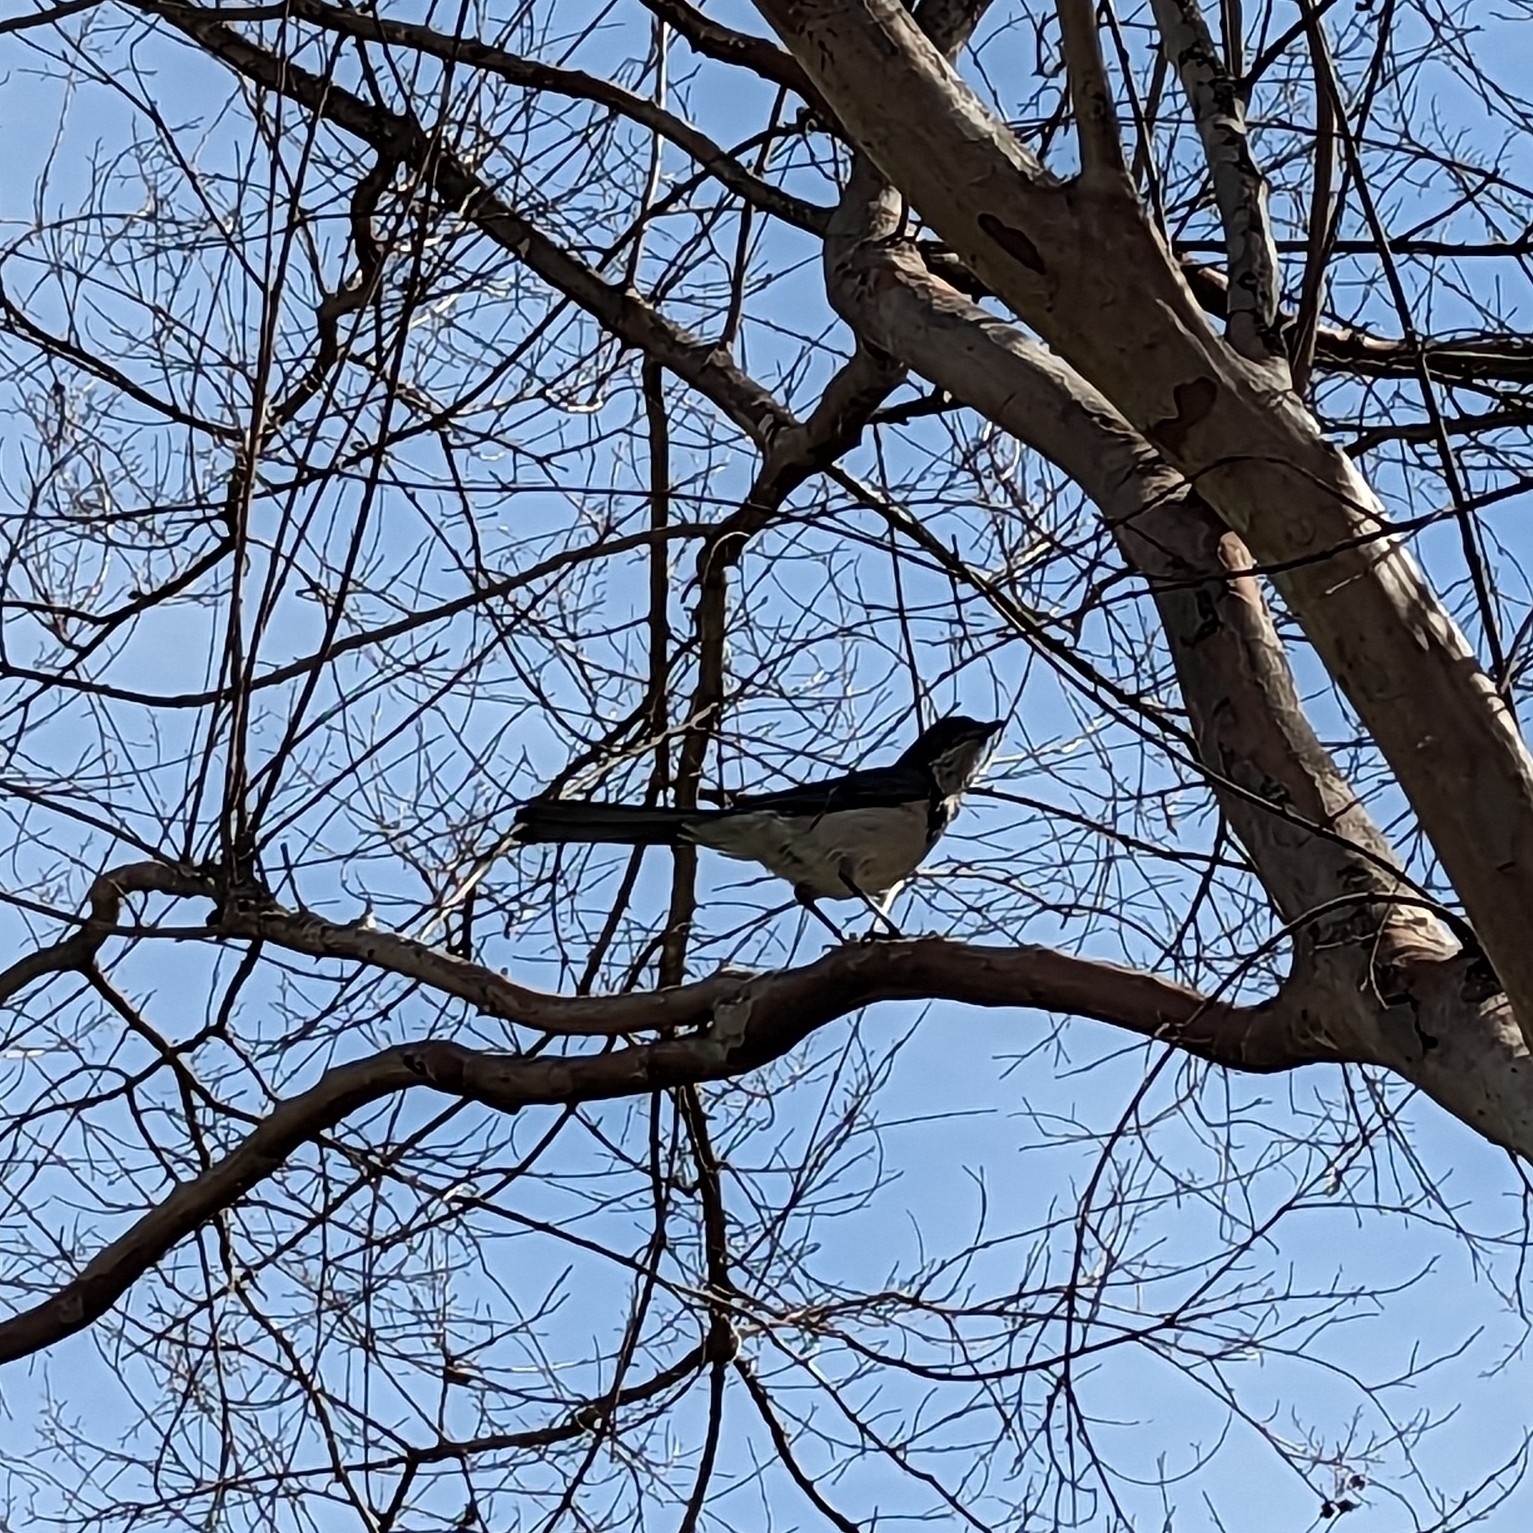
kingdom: Animalia
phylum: Chordata
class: Aves
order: Passeriformes
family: Corvidae
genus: Aphelocoma
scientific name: Aphelocoma californica
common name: California scrub-jay
